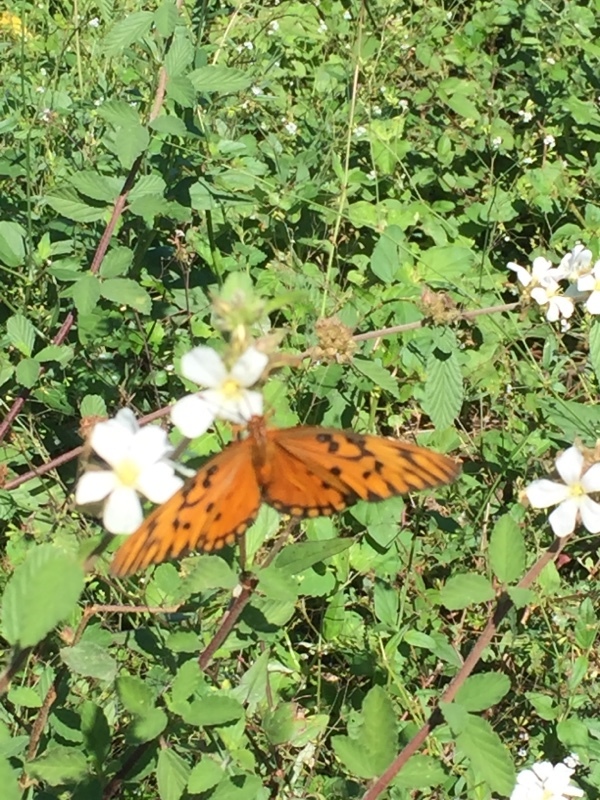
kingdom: Animalia
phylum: Arthropoda
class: Insecta
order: Lepidoptera
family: Nymphalidae
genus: Dione
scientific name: Dione vanillae
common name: Gulf fritillary
